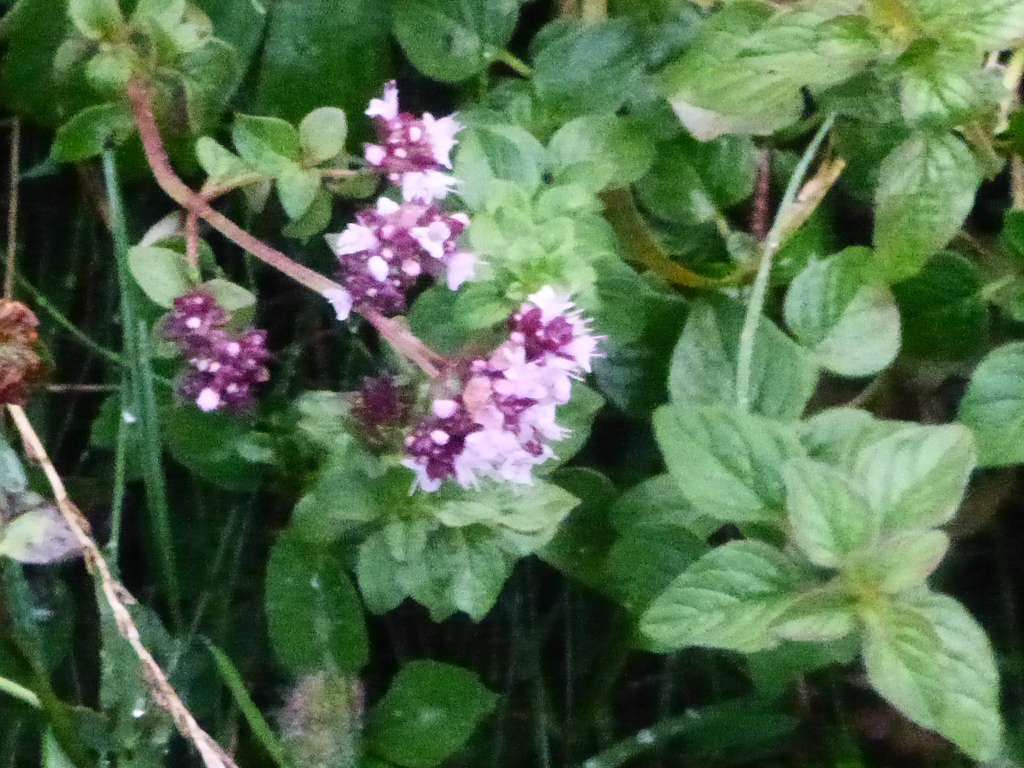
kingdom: Plantae
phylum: Tracheophyta
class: Magnoliopsida
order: Lamiales
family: Lamiaceae
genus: Origanum
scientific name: Origanum vulgare
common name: Wild marjoram
